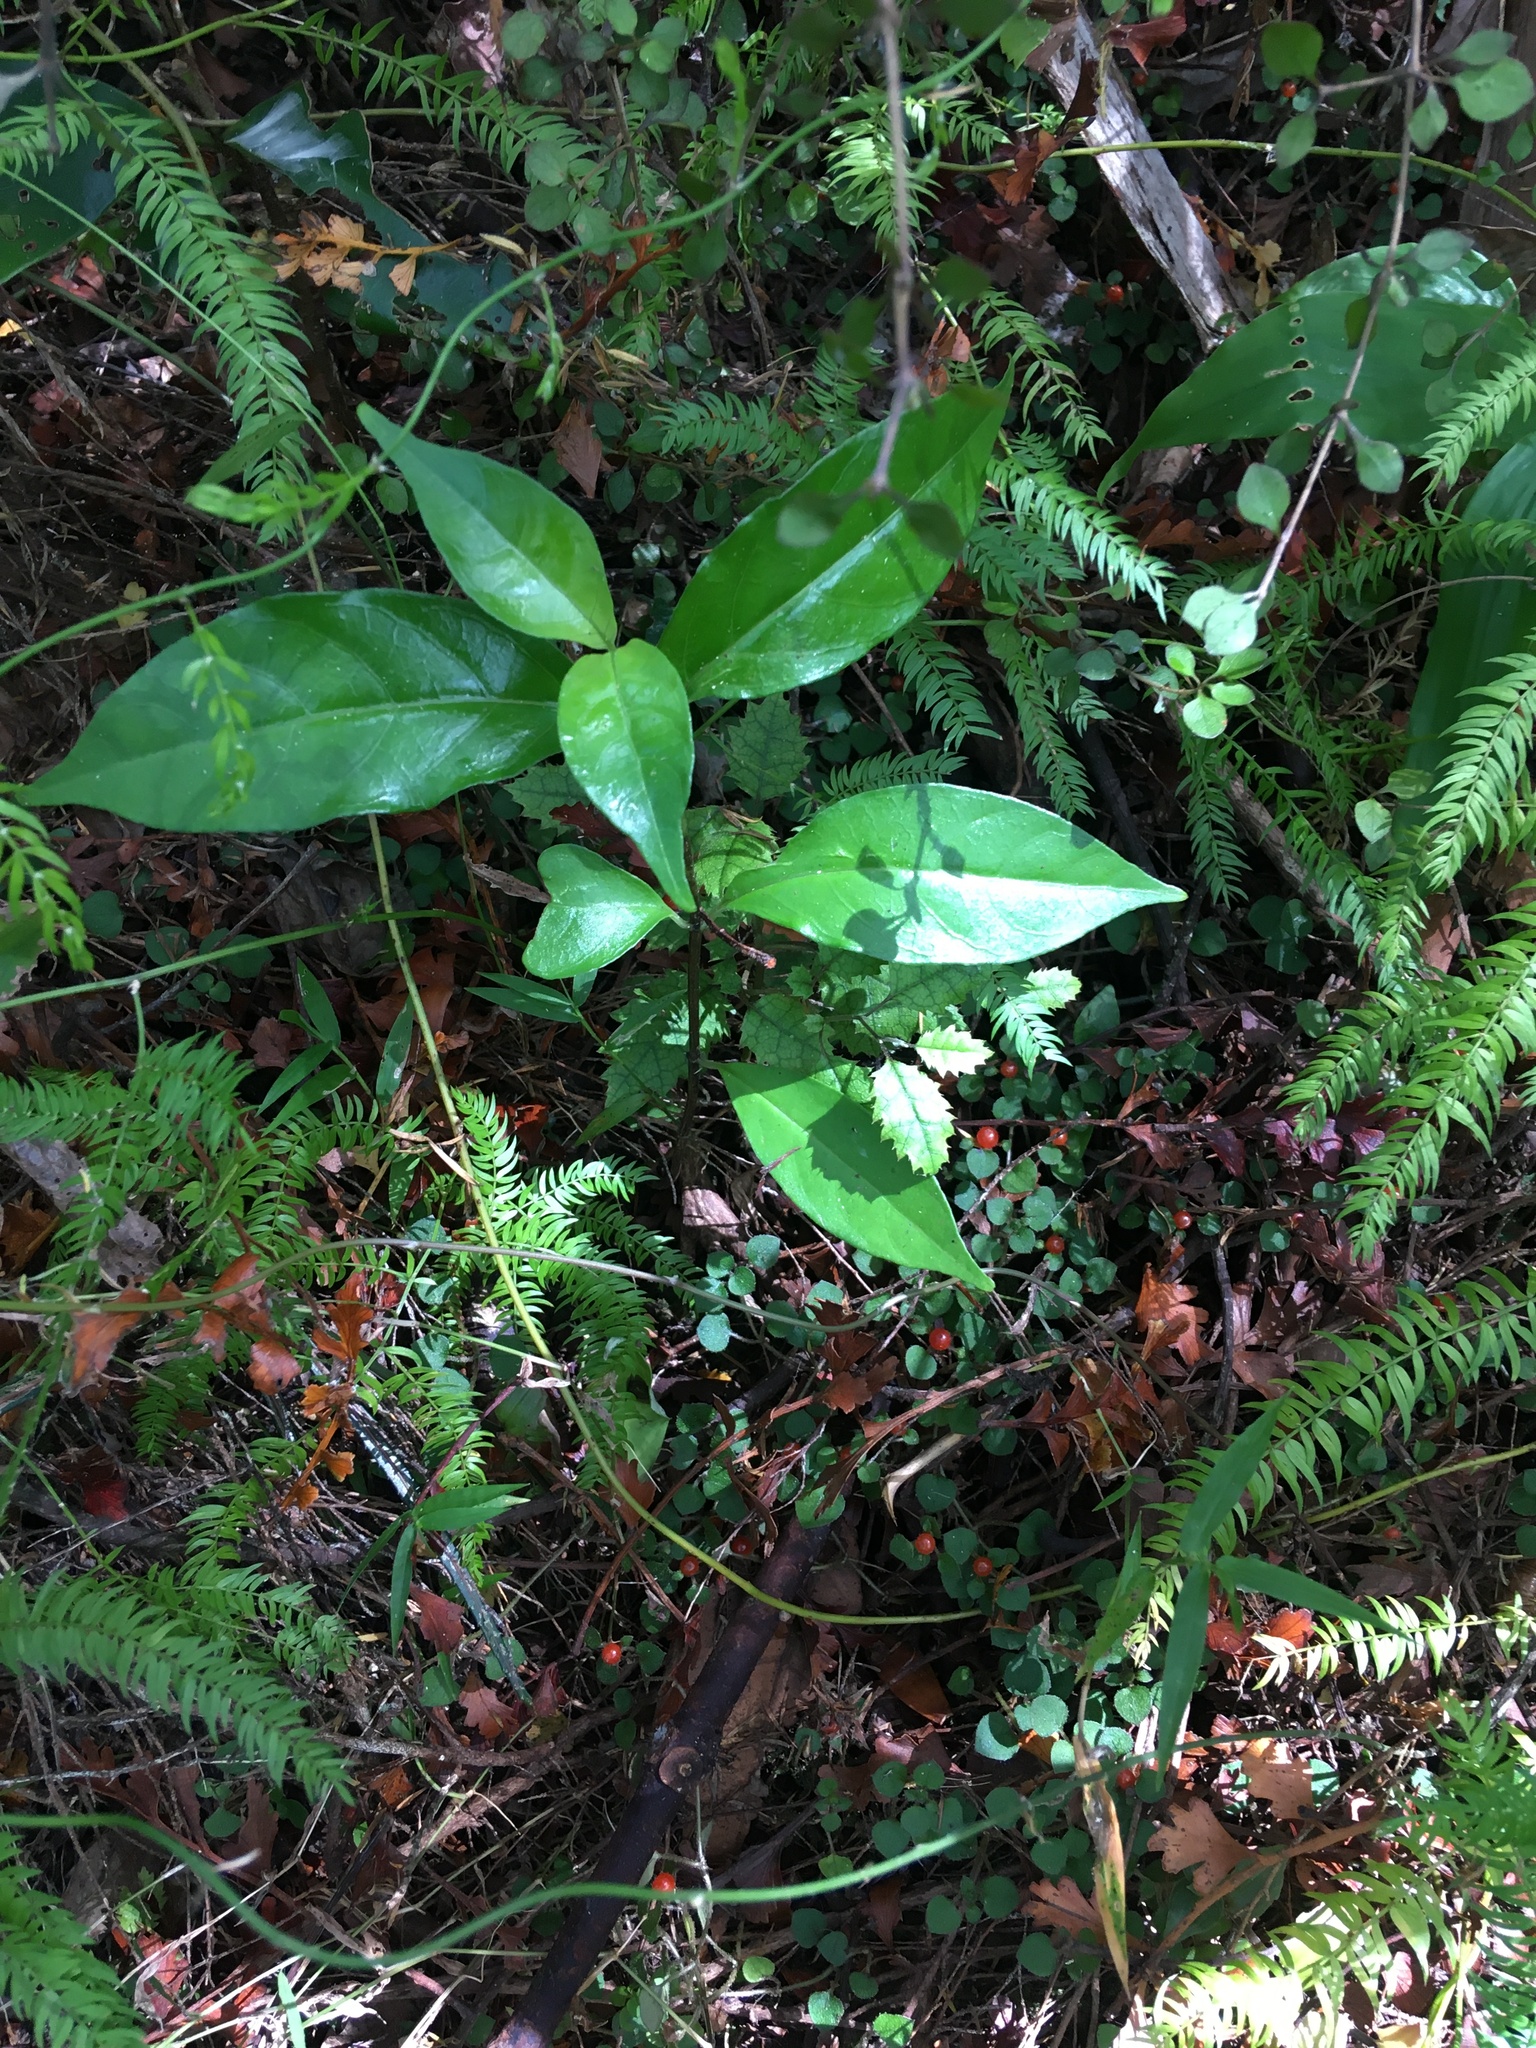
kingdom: Plantae
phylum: Tracheophyta
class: Magnoliopsida
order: Gentianales
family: Rubiaceae
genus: Nertera
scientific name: Nertera dichondrifolia
